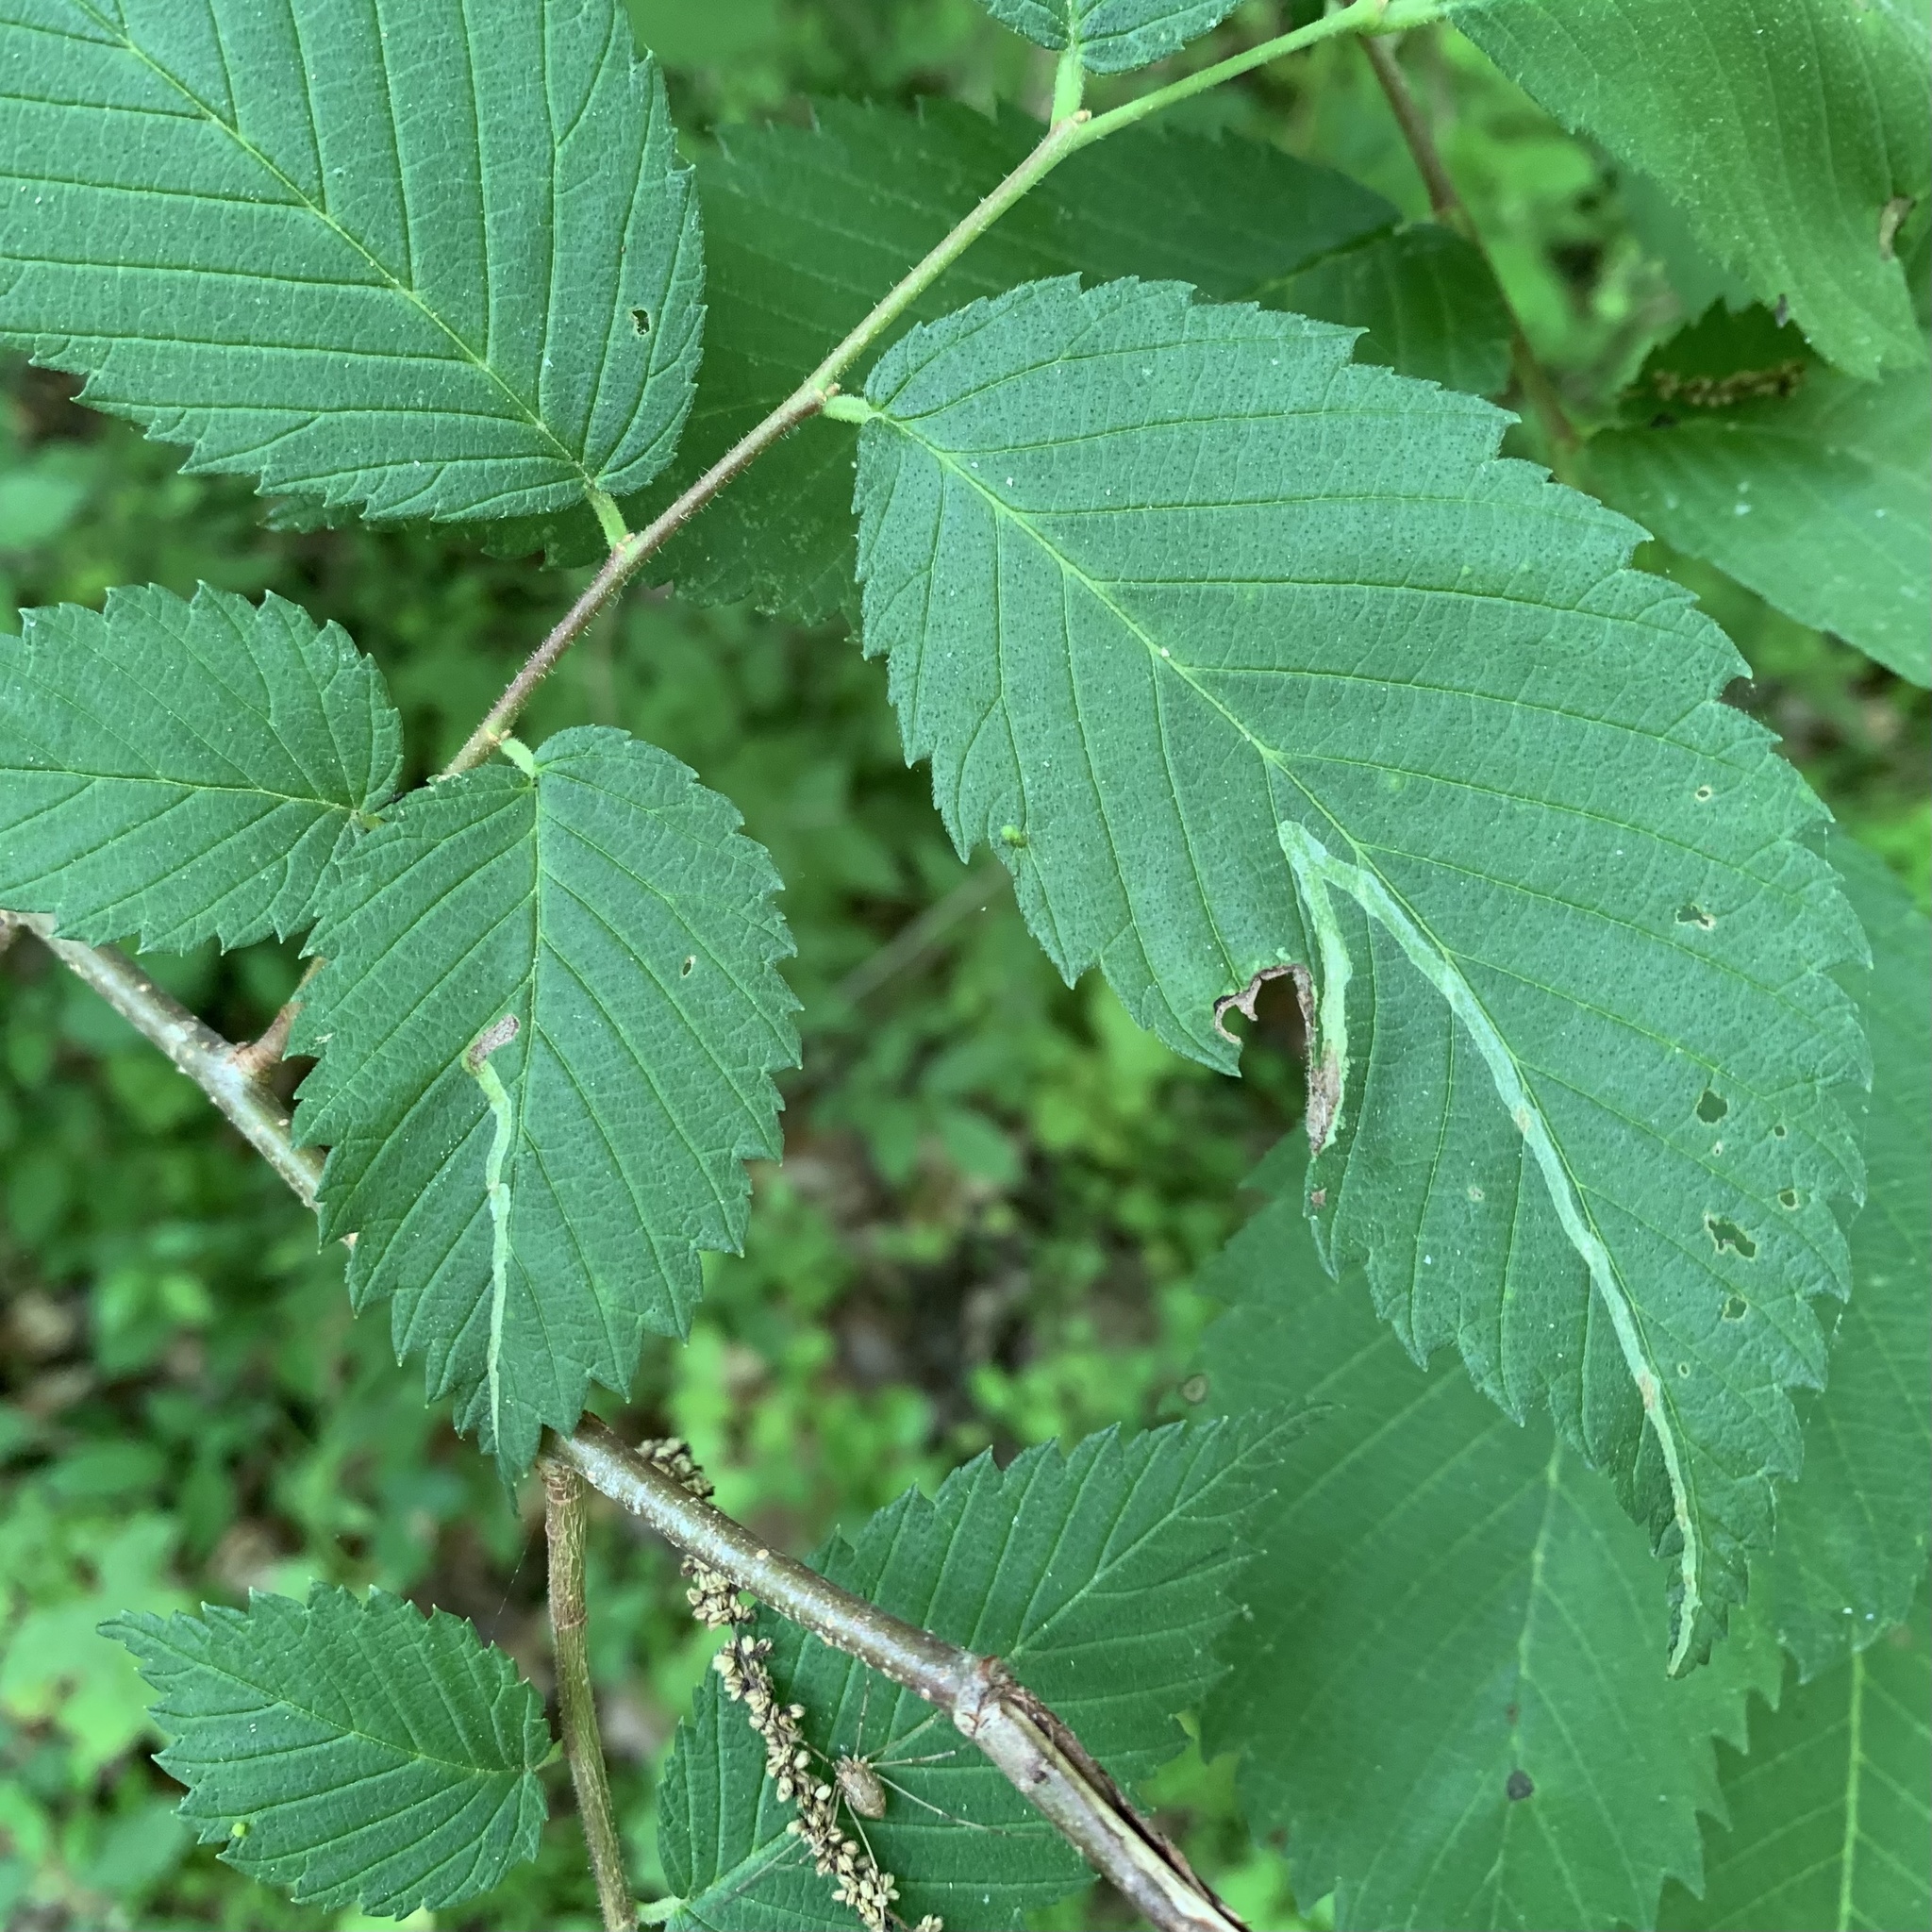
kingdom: Animalia
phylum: Arthropoda
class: Insecta
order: Diptera
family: Agromyzidae
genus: Agromyza
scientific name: Agromyza aristata
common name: Elm agromyzid leafminer
